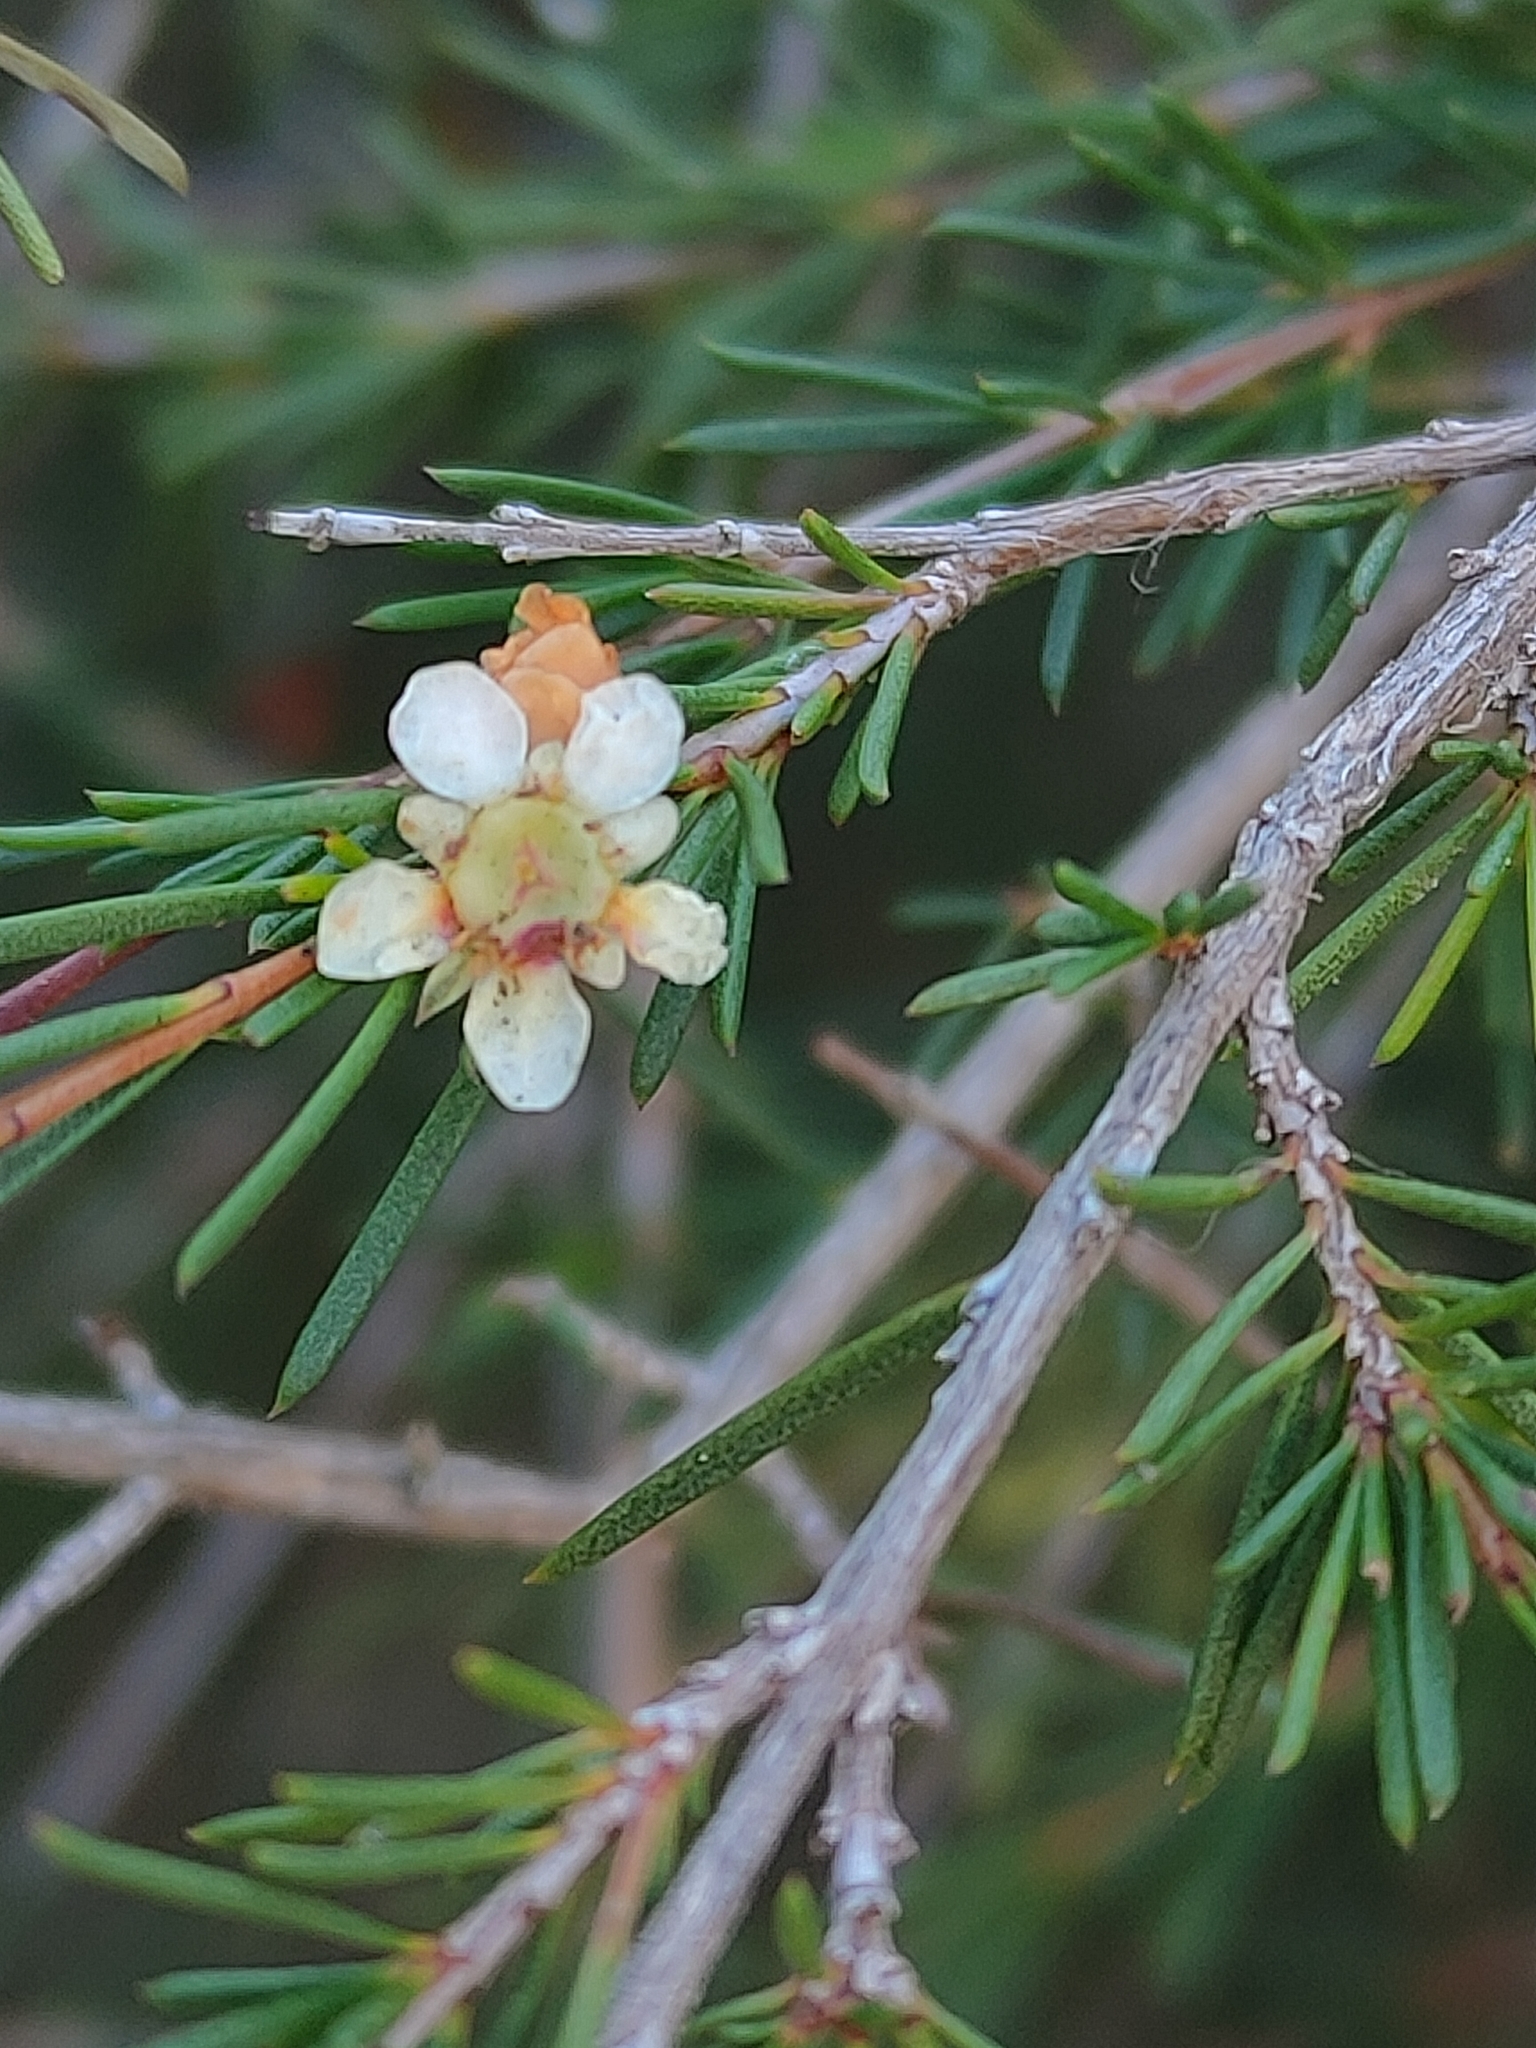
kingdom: Plantae
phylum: Tracheophyta
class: Magnoliopsida
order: Myrtales
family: Myrtaceae
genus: Baeckea
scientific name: Baeckea frutescens
